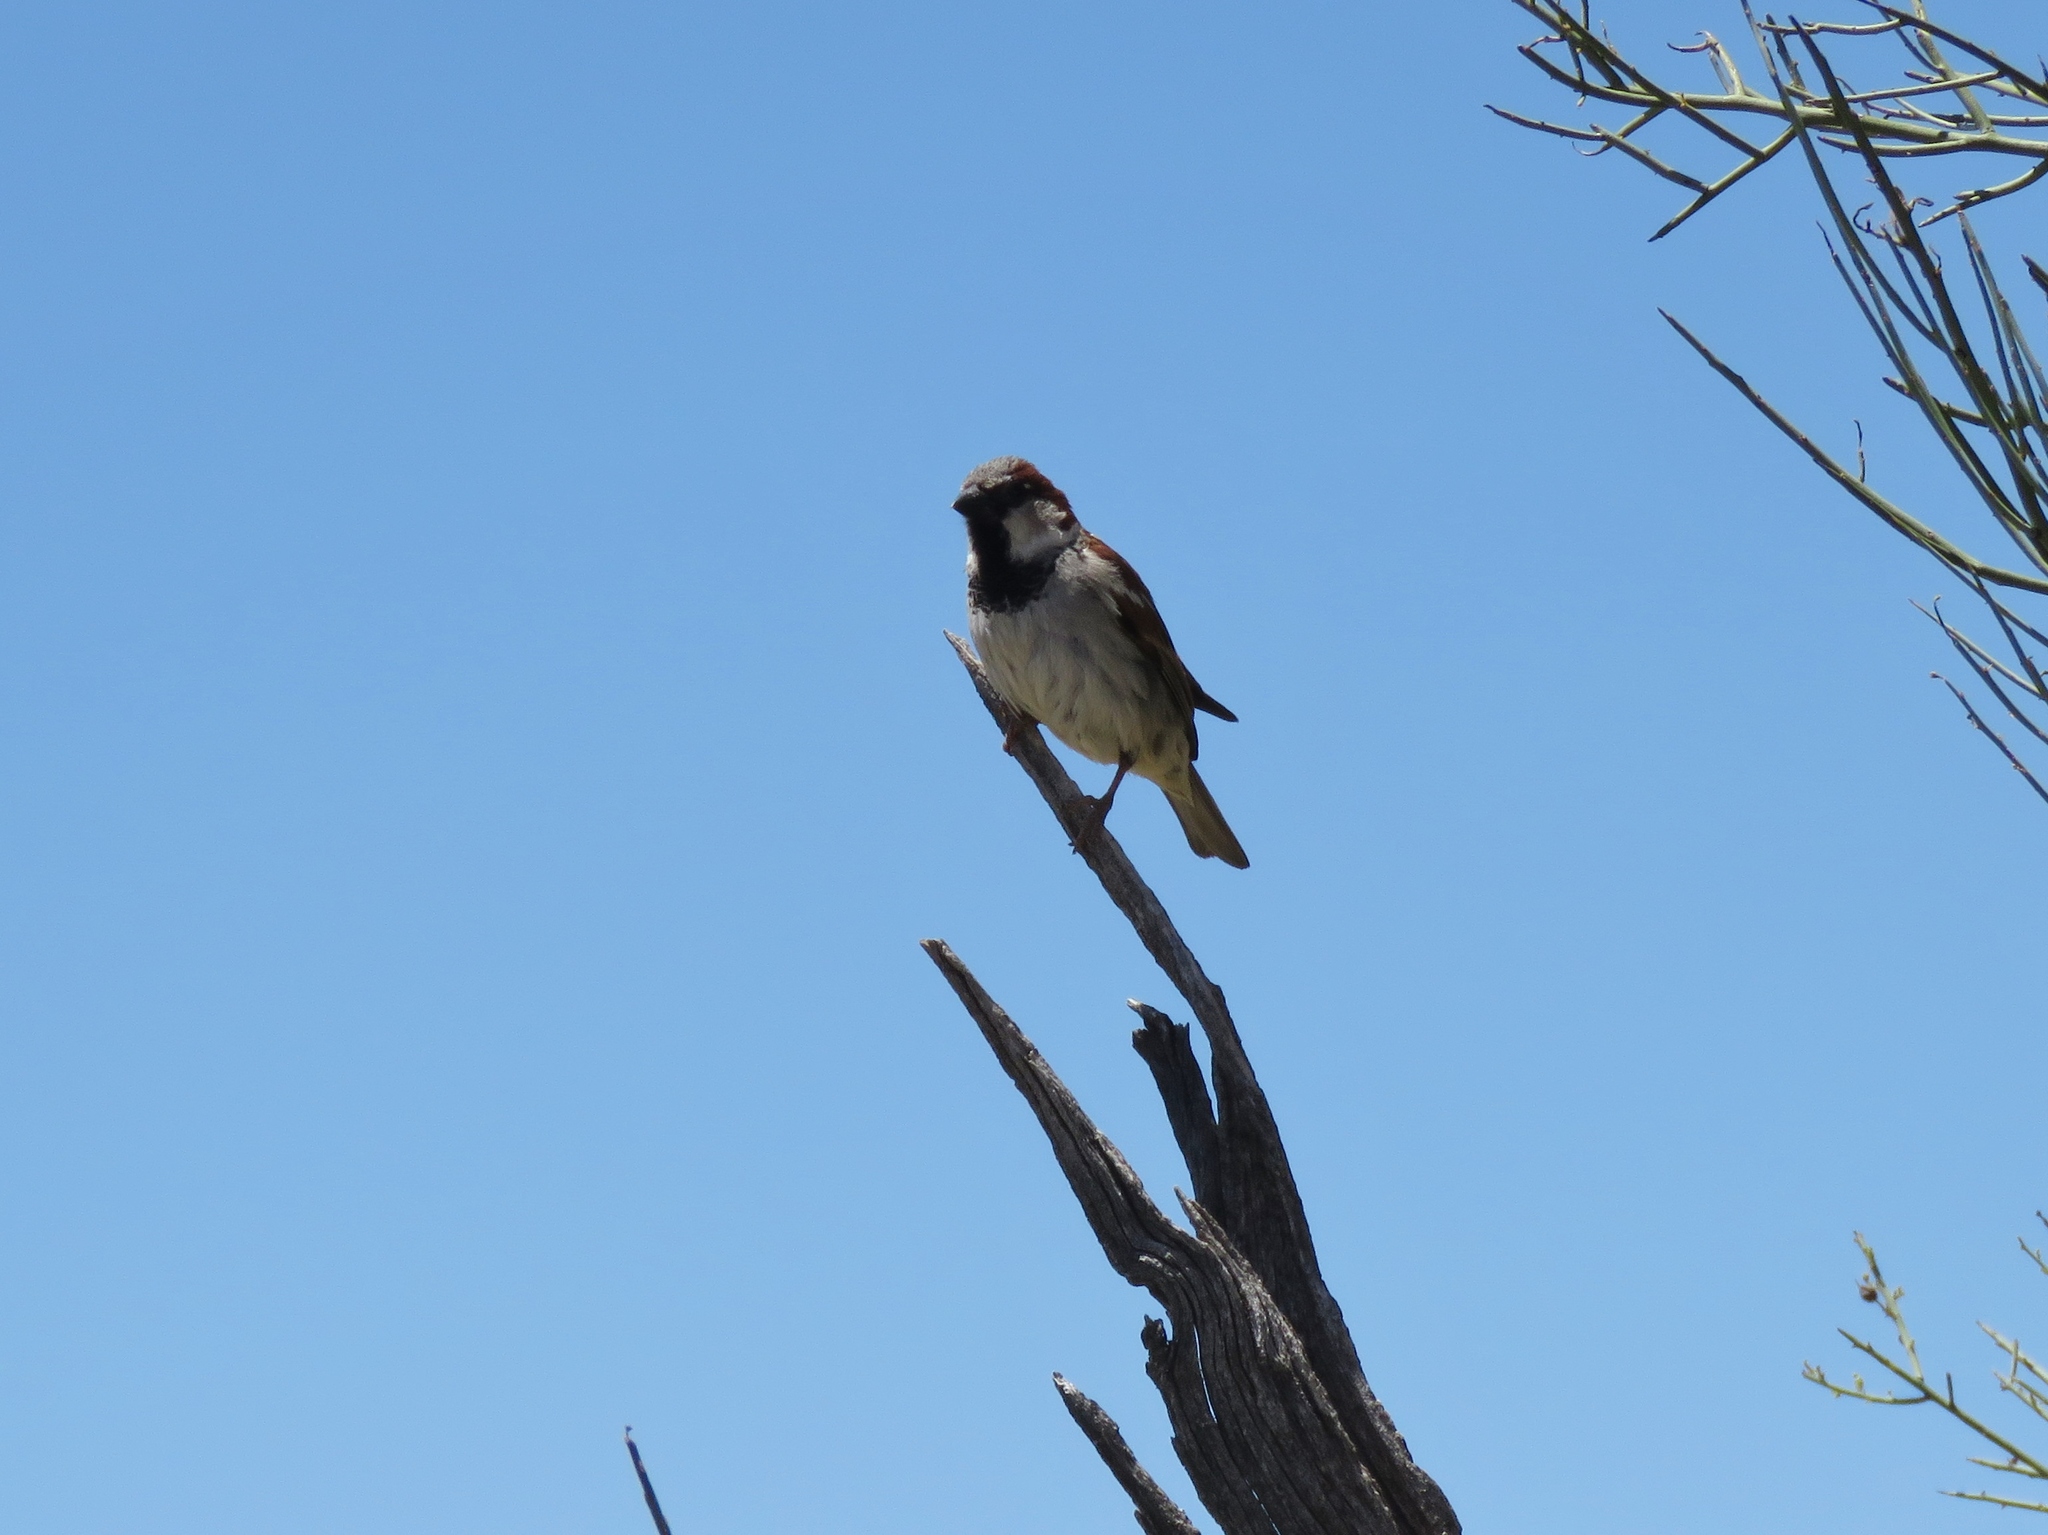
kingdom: Animalia
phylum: Chordata
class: Aves
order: Passeriformes
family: Passeridae
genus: Passer
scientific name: Passer domesticus
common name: House sparrow
